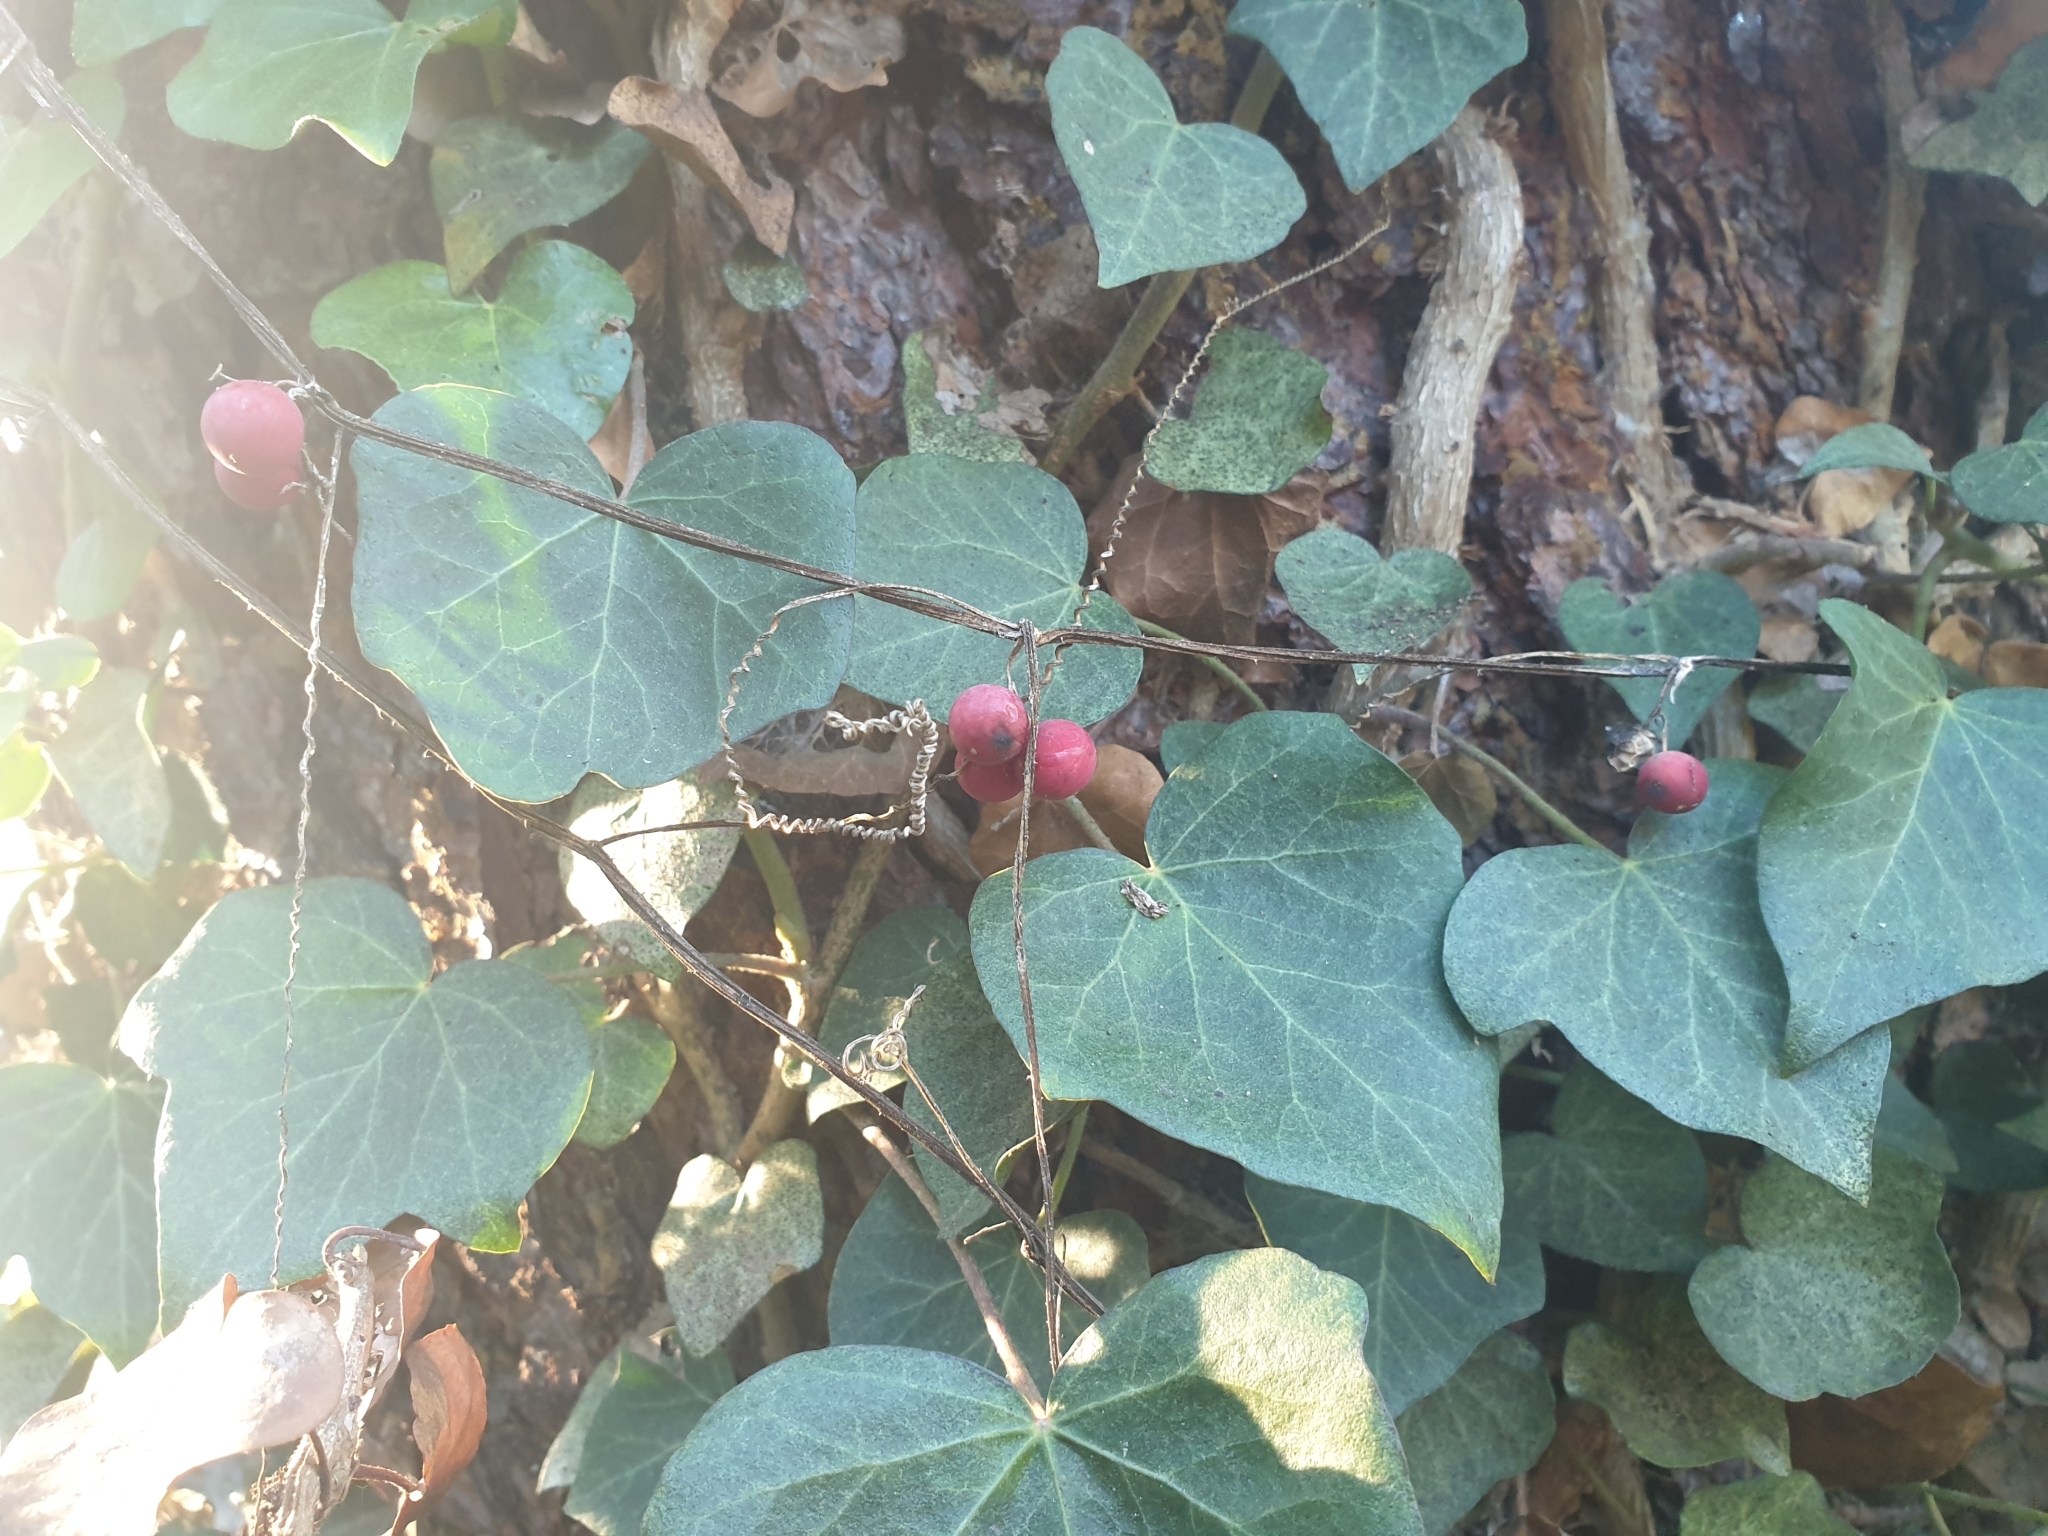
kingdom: Plantae
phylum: Tracheophyta
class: Magnoliopsida
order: Cucurbitales
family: Cucurbitaceae
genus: Bryonia
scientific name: Bryonia cretica
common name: Cretan bryony
